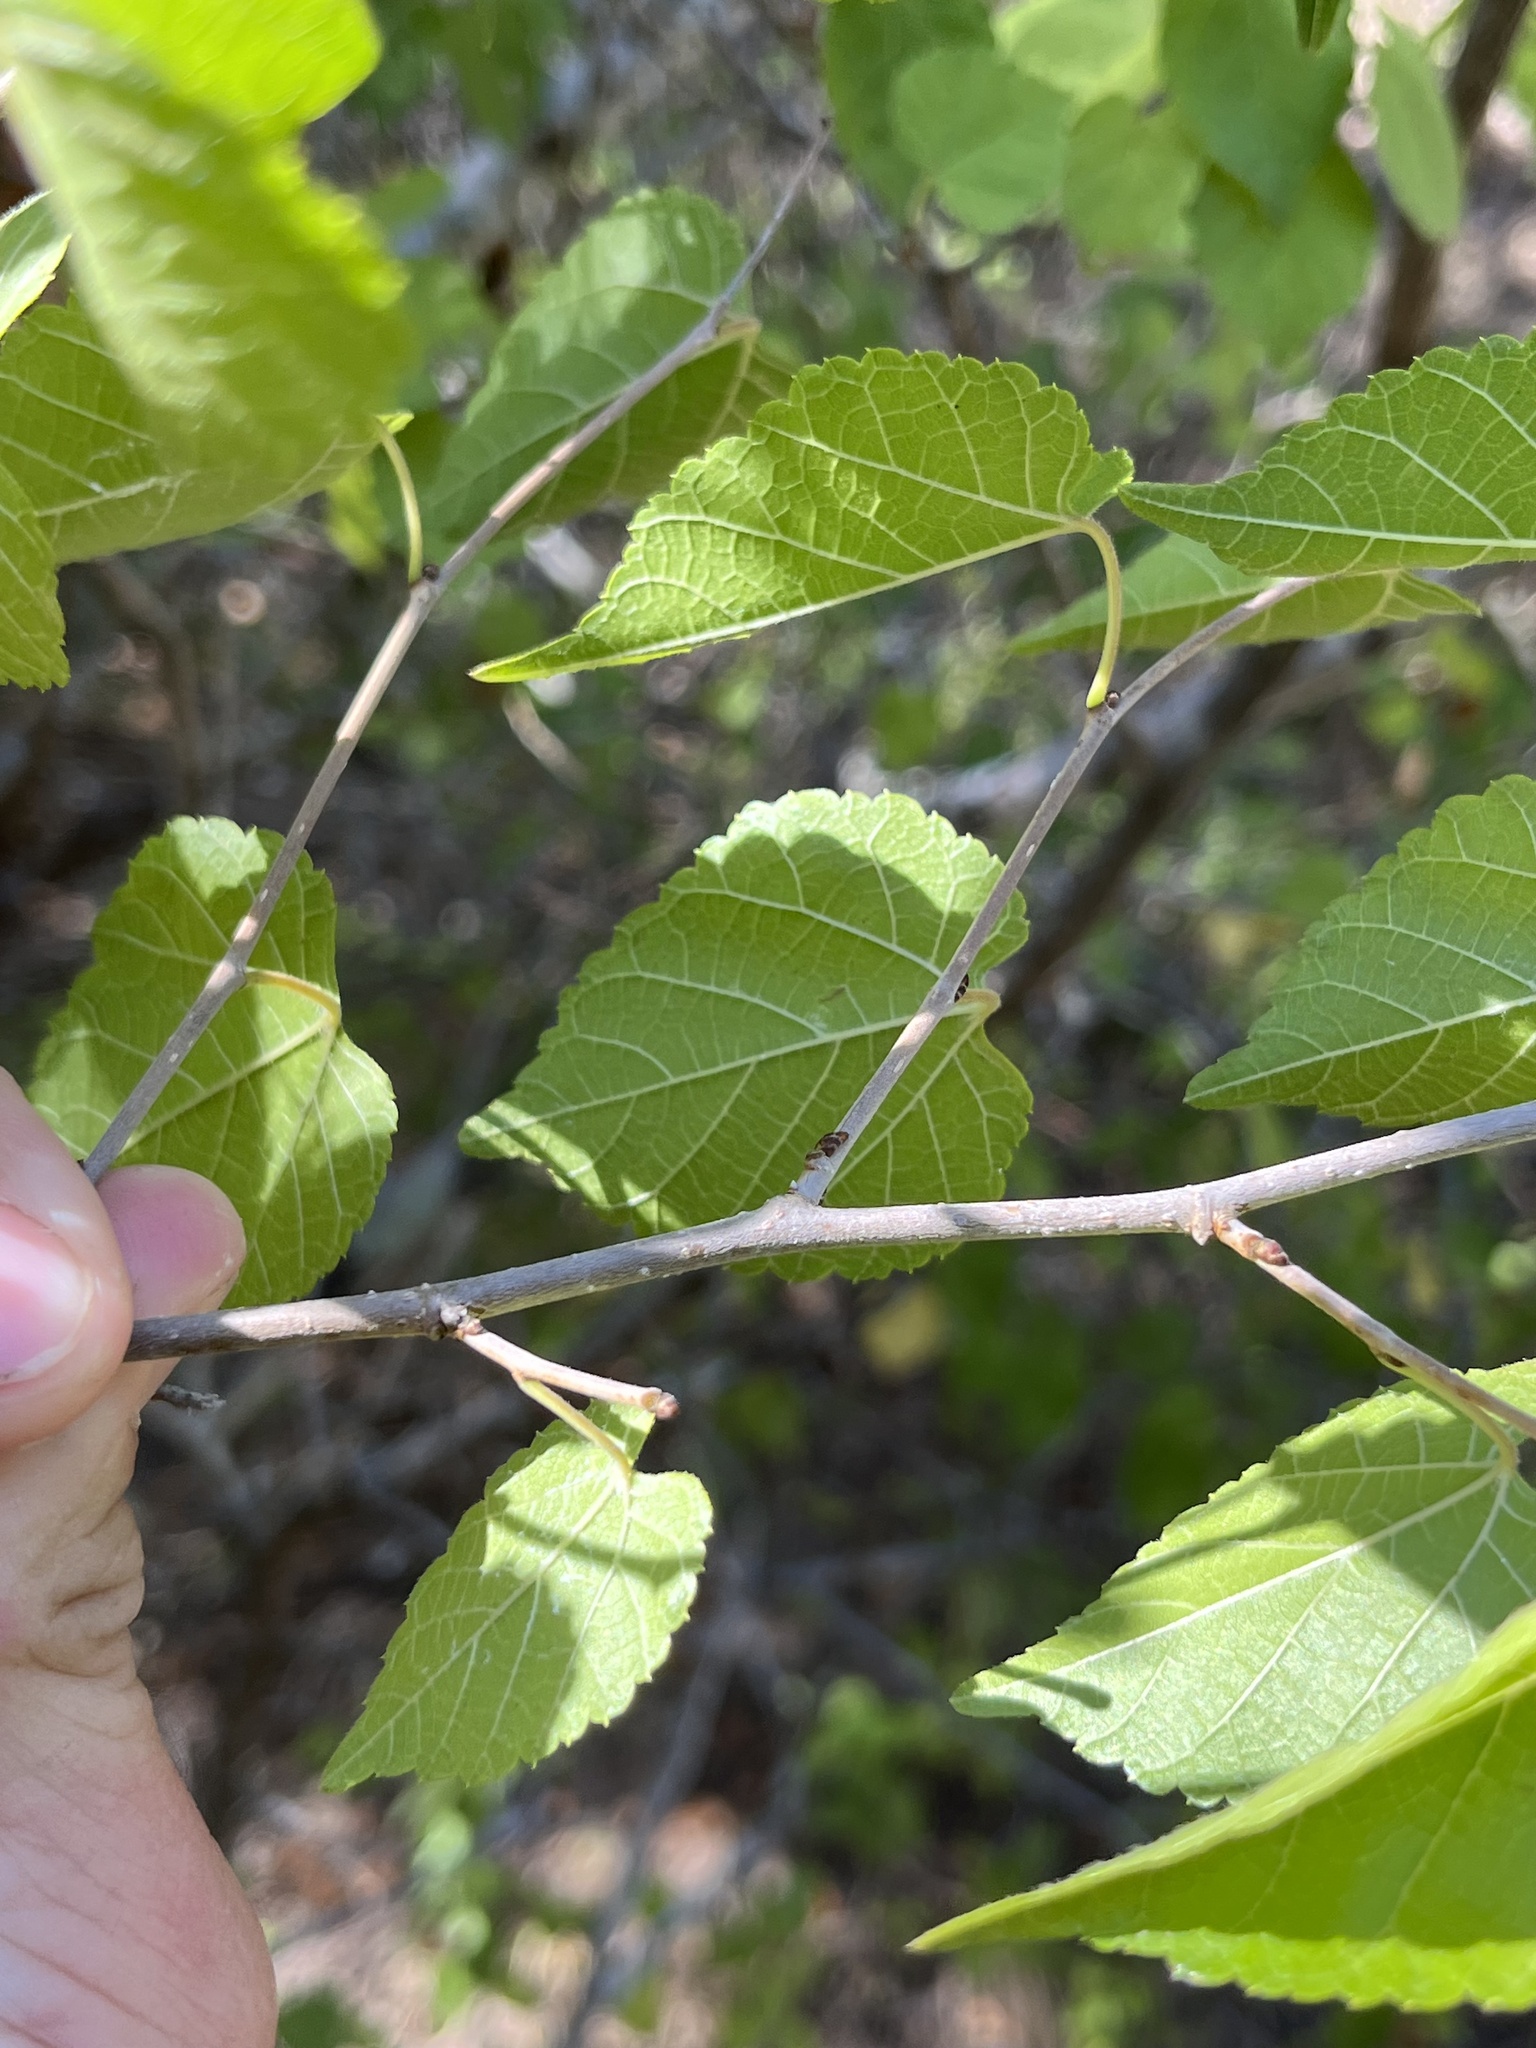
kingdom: Plantae
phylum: Tracheophyta
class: Magnoliopsida
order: Rosales
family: Moraceae
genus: Morus
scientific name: Morus microphylla
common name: Mexican mulberry
